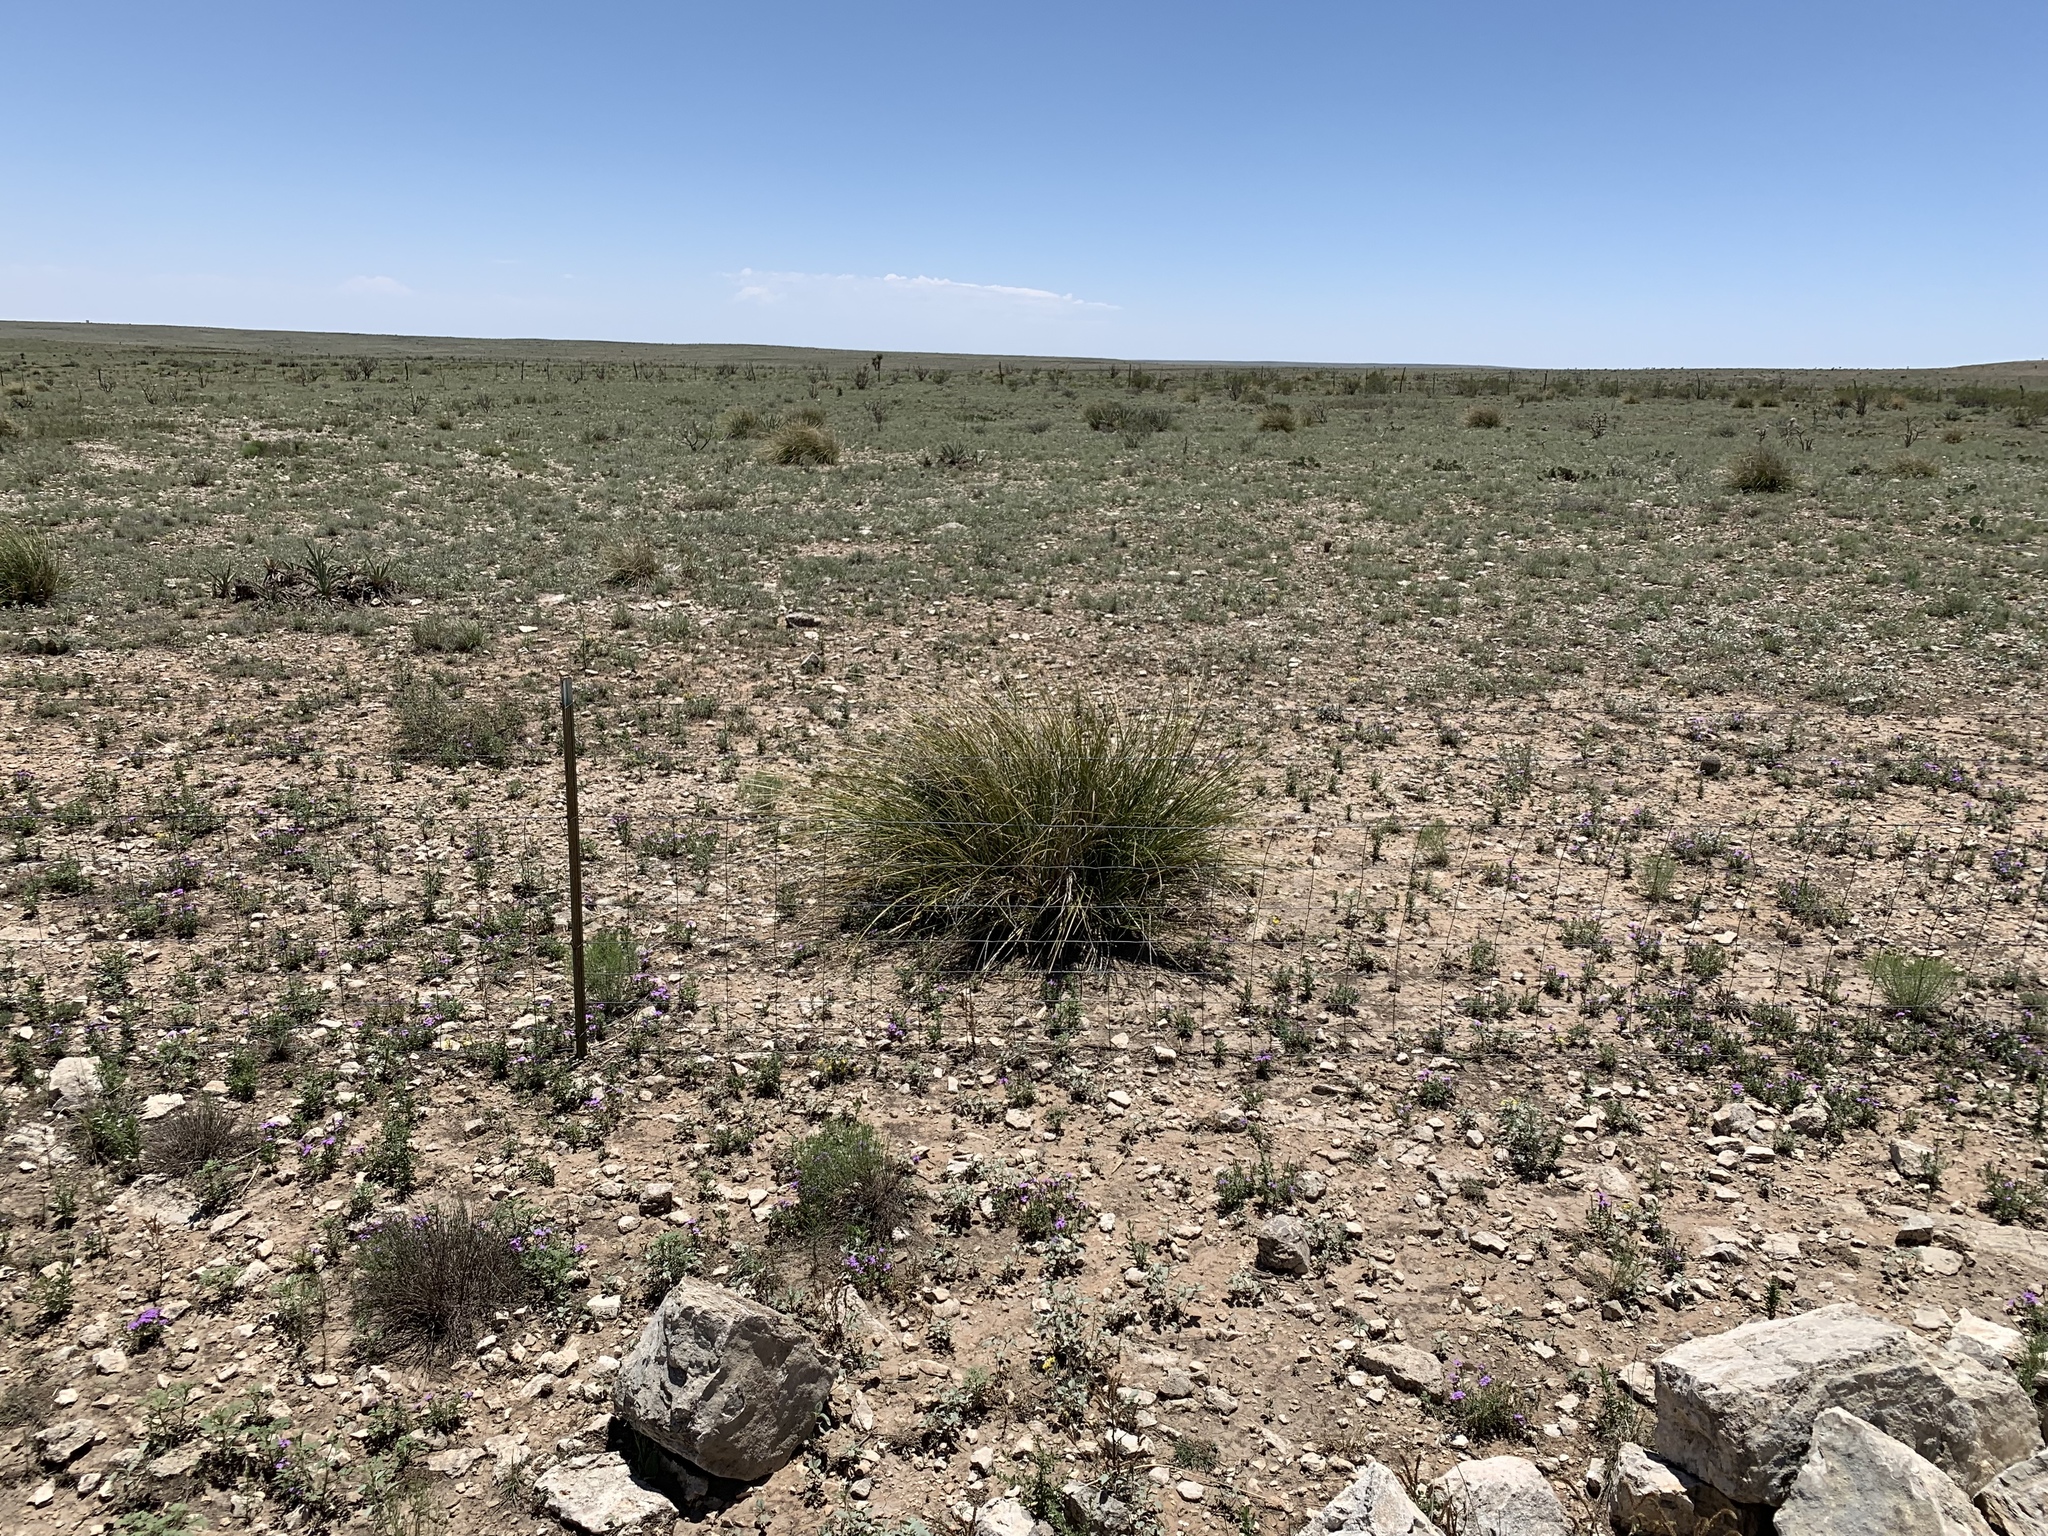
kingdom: Plantae
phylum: Tracheophyta
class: Liliopsida
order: Asparagales
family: Asparagaceae
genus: Nolina
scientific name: Nolina texana
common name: Texas sacahuiste
